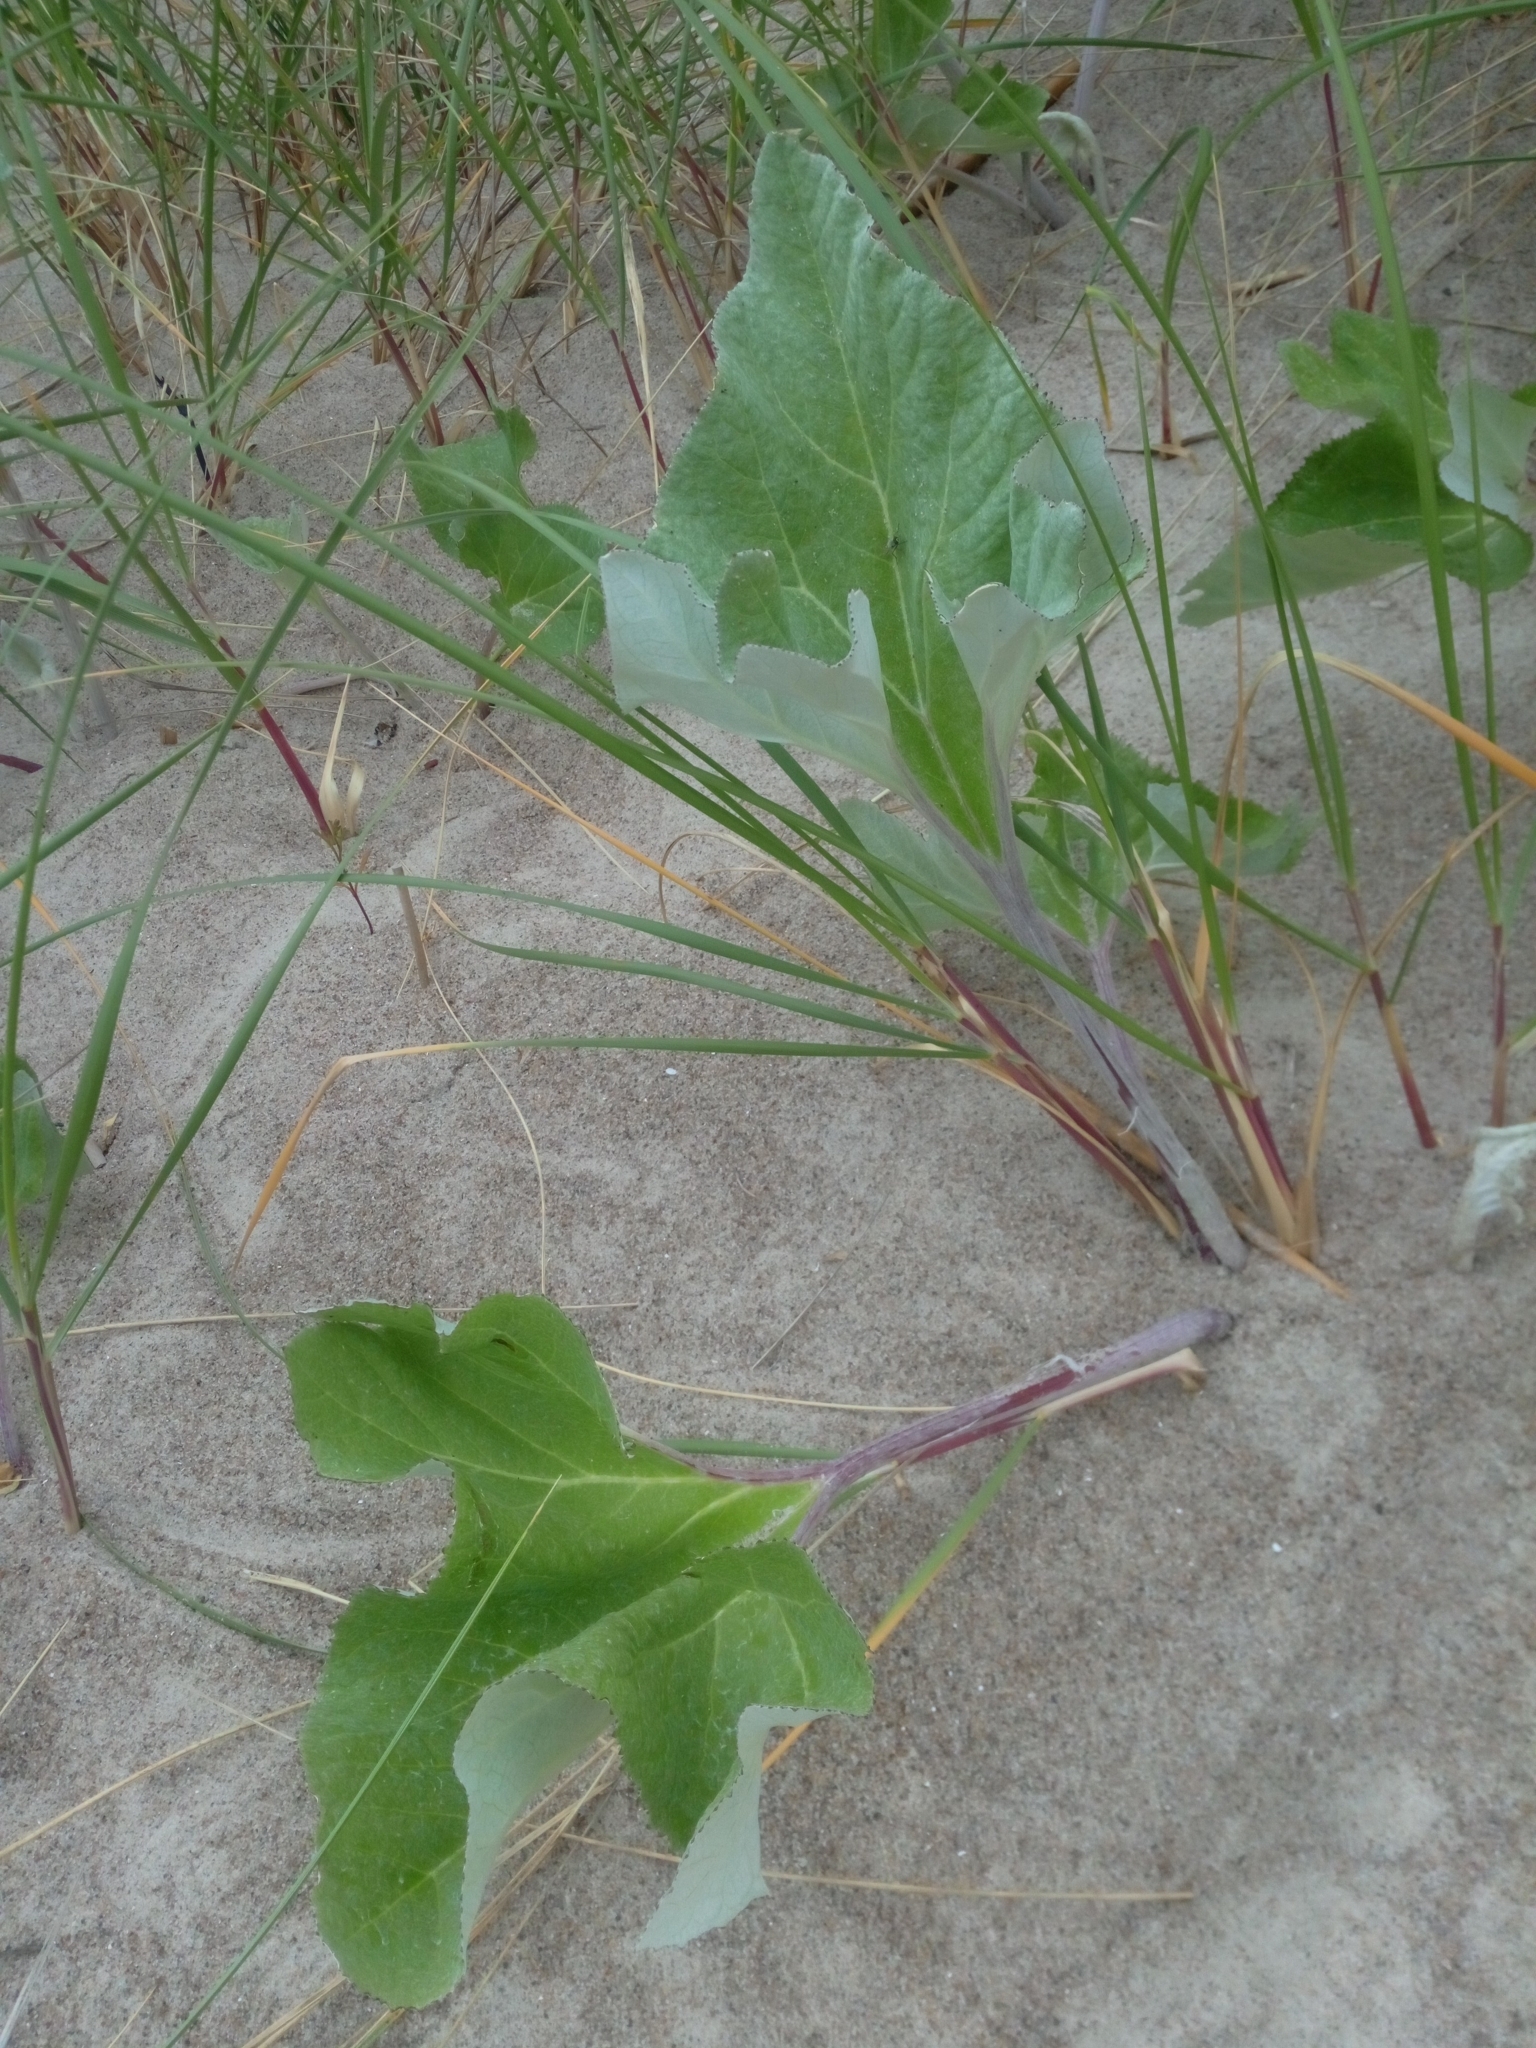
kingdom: Plantae
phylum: Tracheophyta
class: Magnoliopsida
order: Asterales
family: Asteraceae
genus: Petasites
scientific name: Petasites spurius
